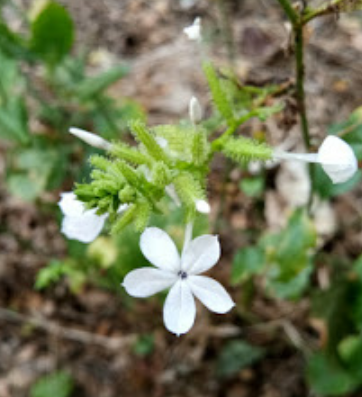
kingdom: Plantae
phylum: Tracheophyta
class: Magnoliopsida
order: Caryophyllales
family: Plumbaginaceae
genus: Plumbago
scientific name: Plumbago zeylanica
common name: Doctorbush
